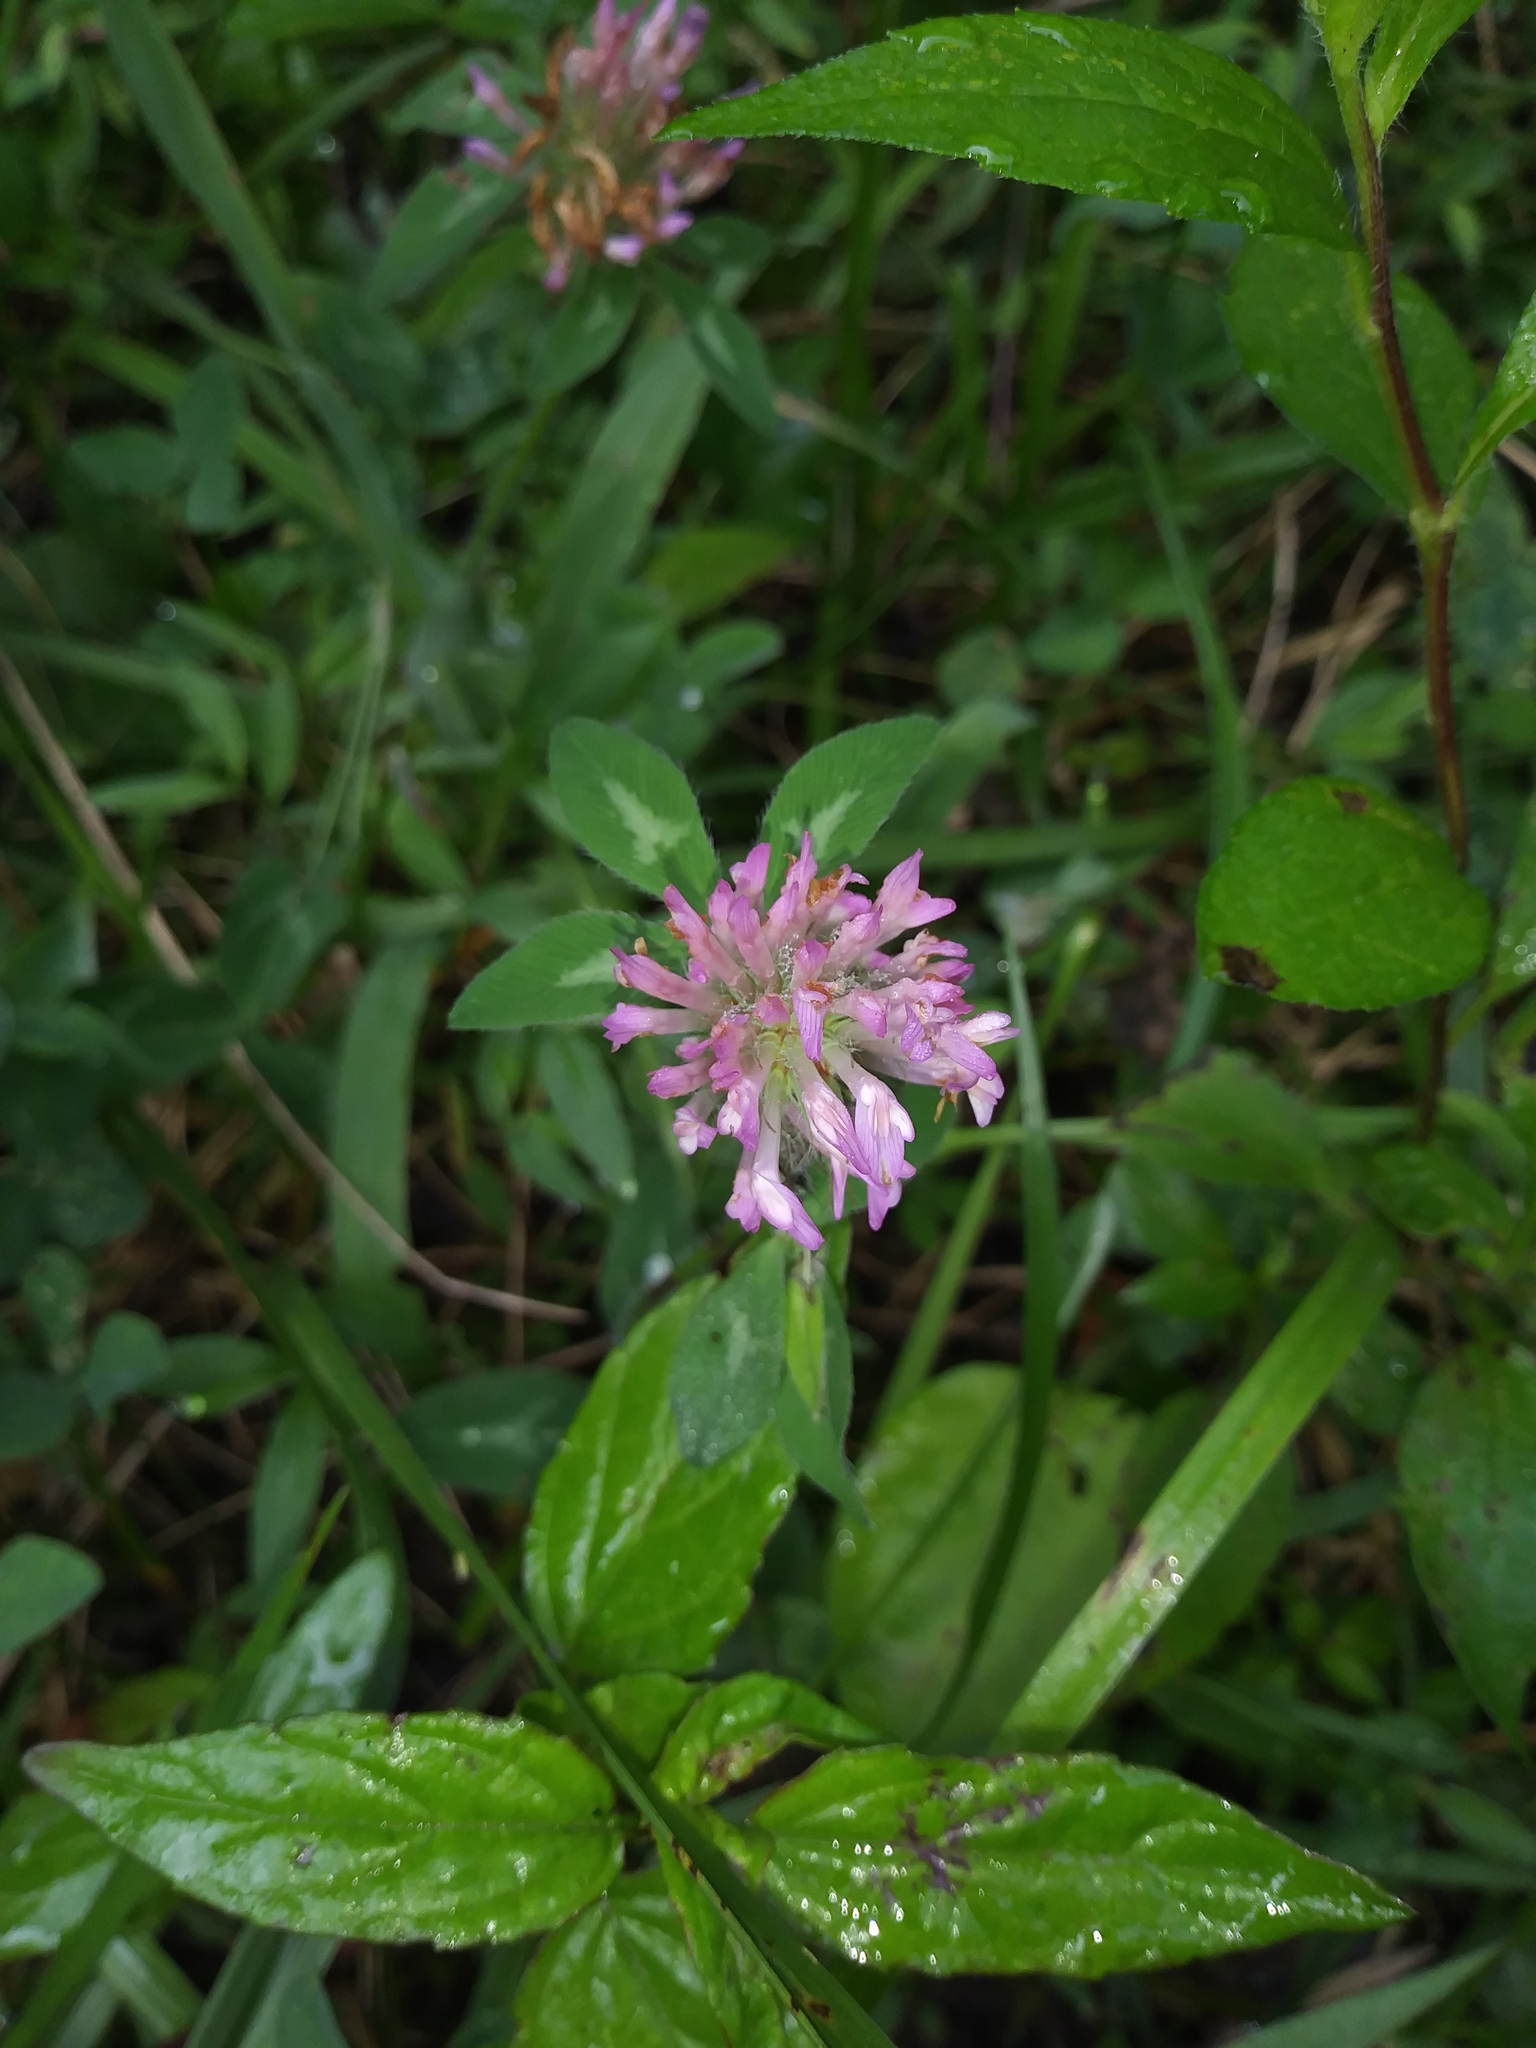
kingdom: Plantae
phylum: Tracheophyta
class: Magnoliopsida
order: Fabales
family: Fabaceae
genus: Trifolium
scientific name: Trifolium pratense
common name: Red clover
